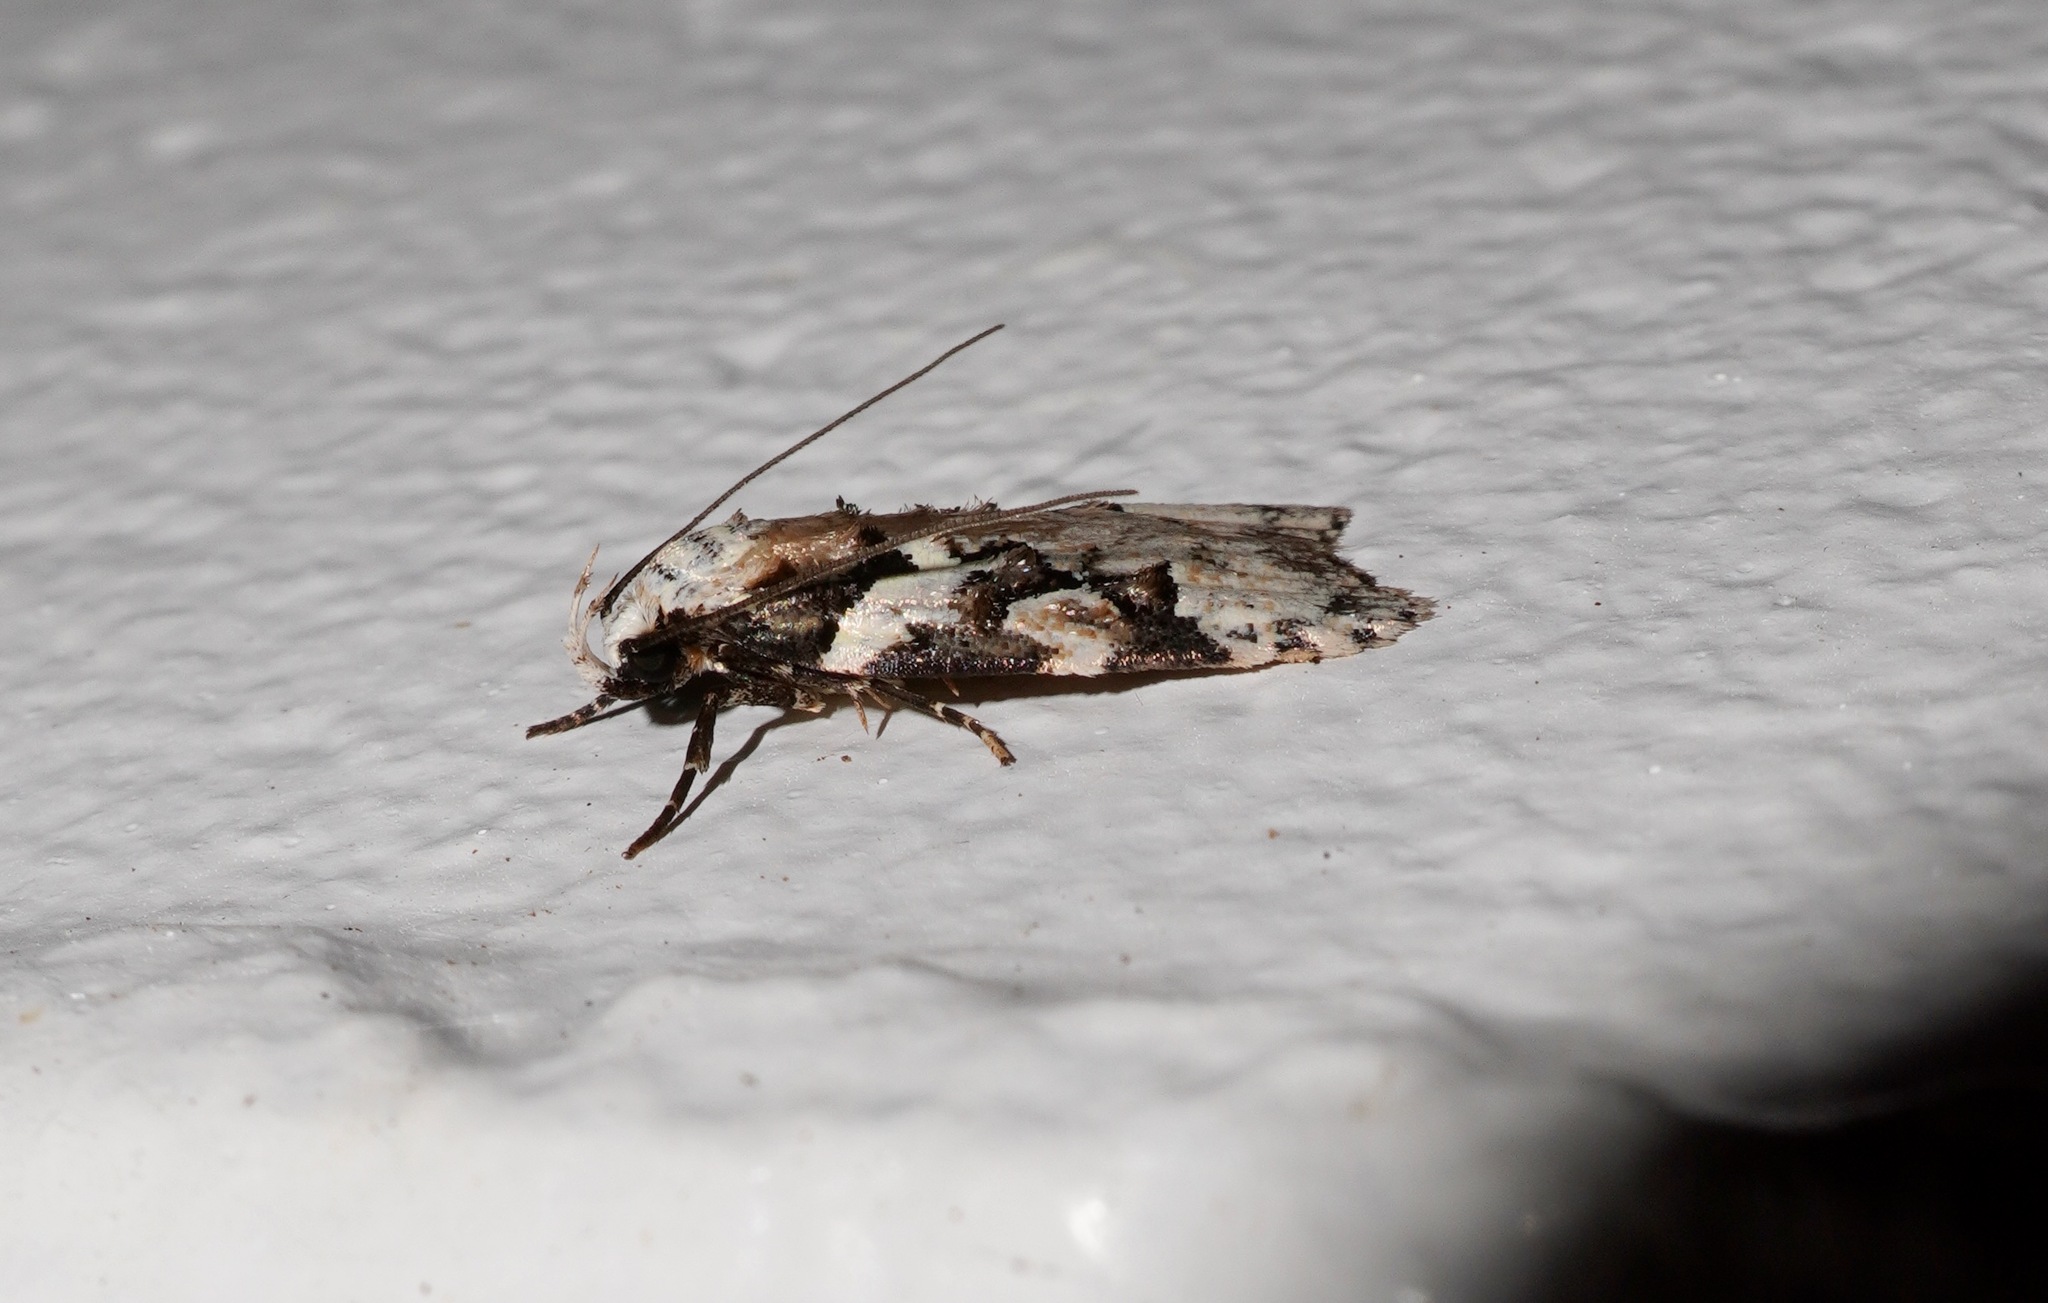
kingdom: Animalia
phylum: Arthropoda
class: Insecta
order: Lepidoptera
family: Oecophoridae
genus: Izatha
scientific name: Izatha epiphanes
